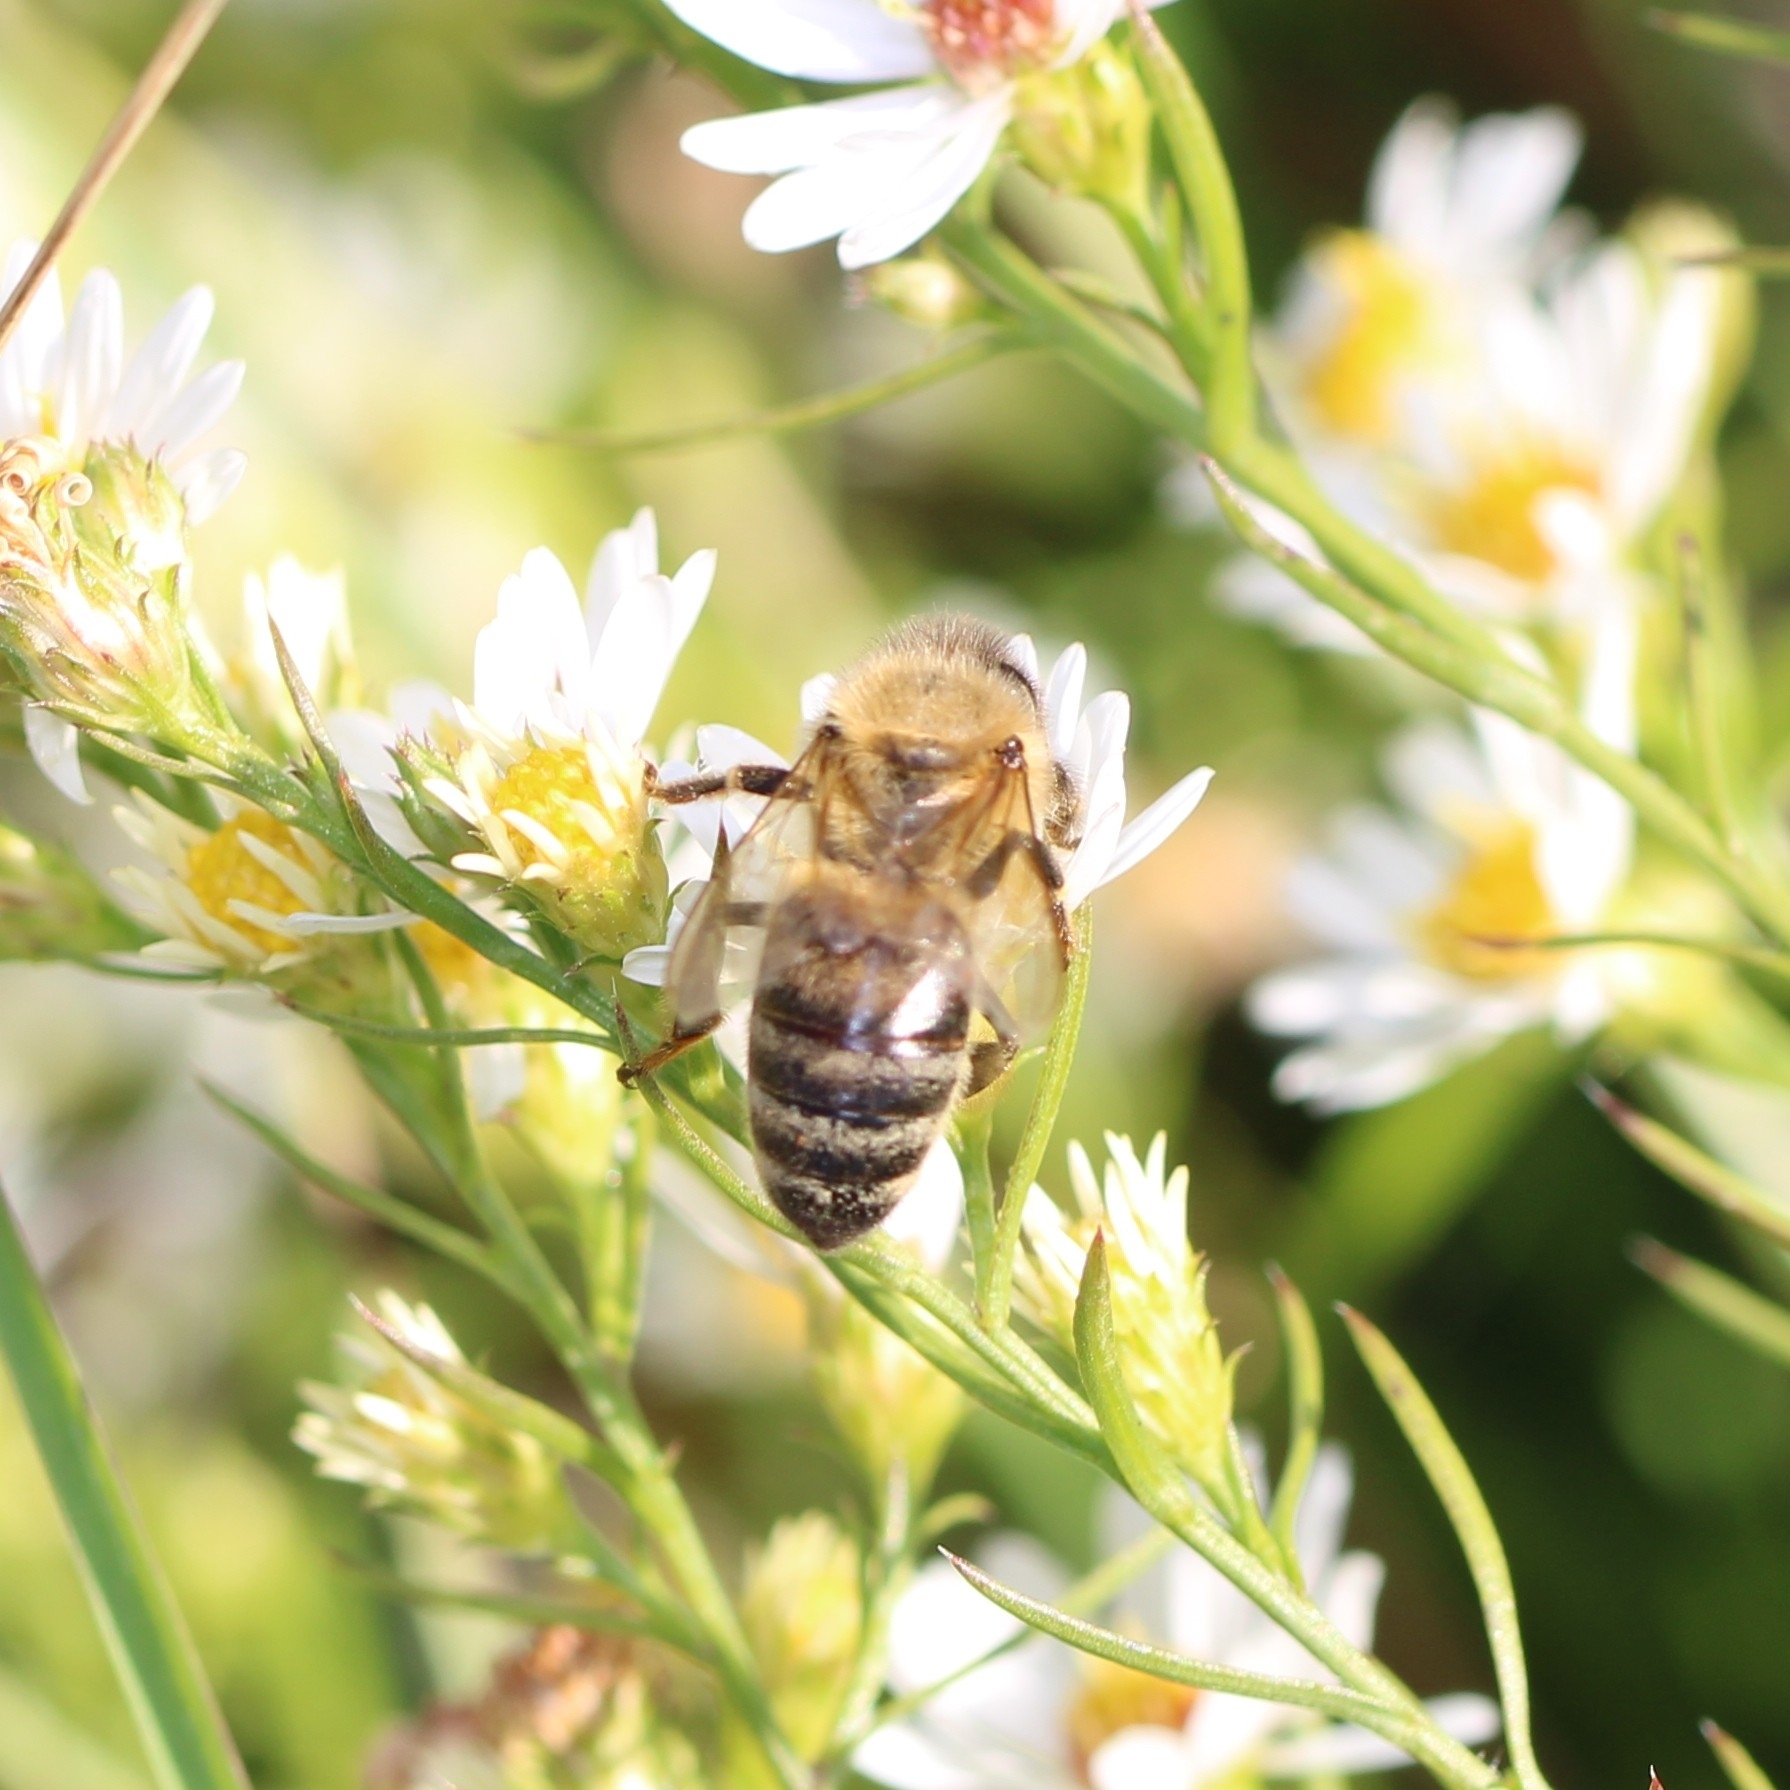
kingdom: Animalia
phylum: Arthropoda
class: Insecta
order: Hymenoptera
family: Apidae
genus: Apis
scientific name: Apis mellifera
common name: Honey bee
